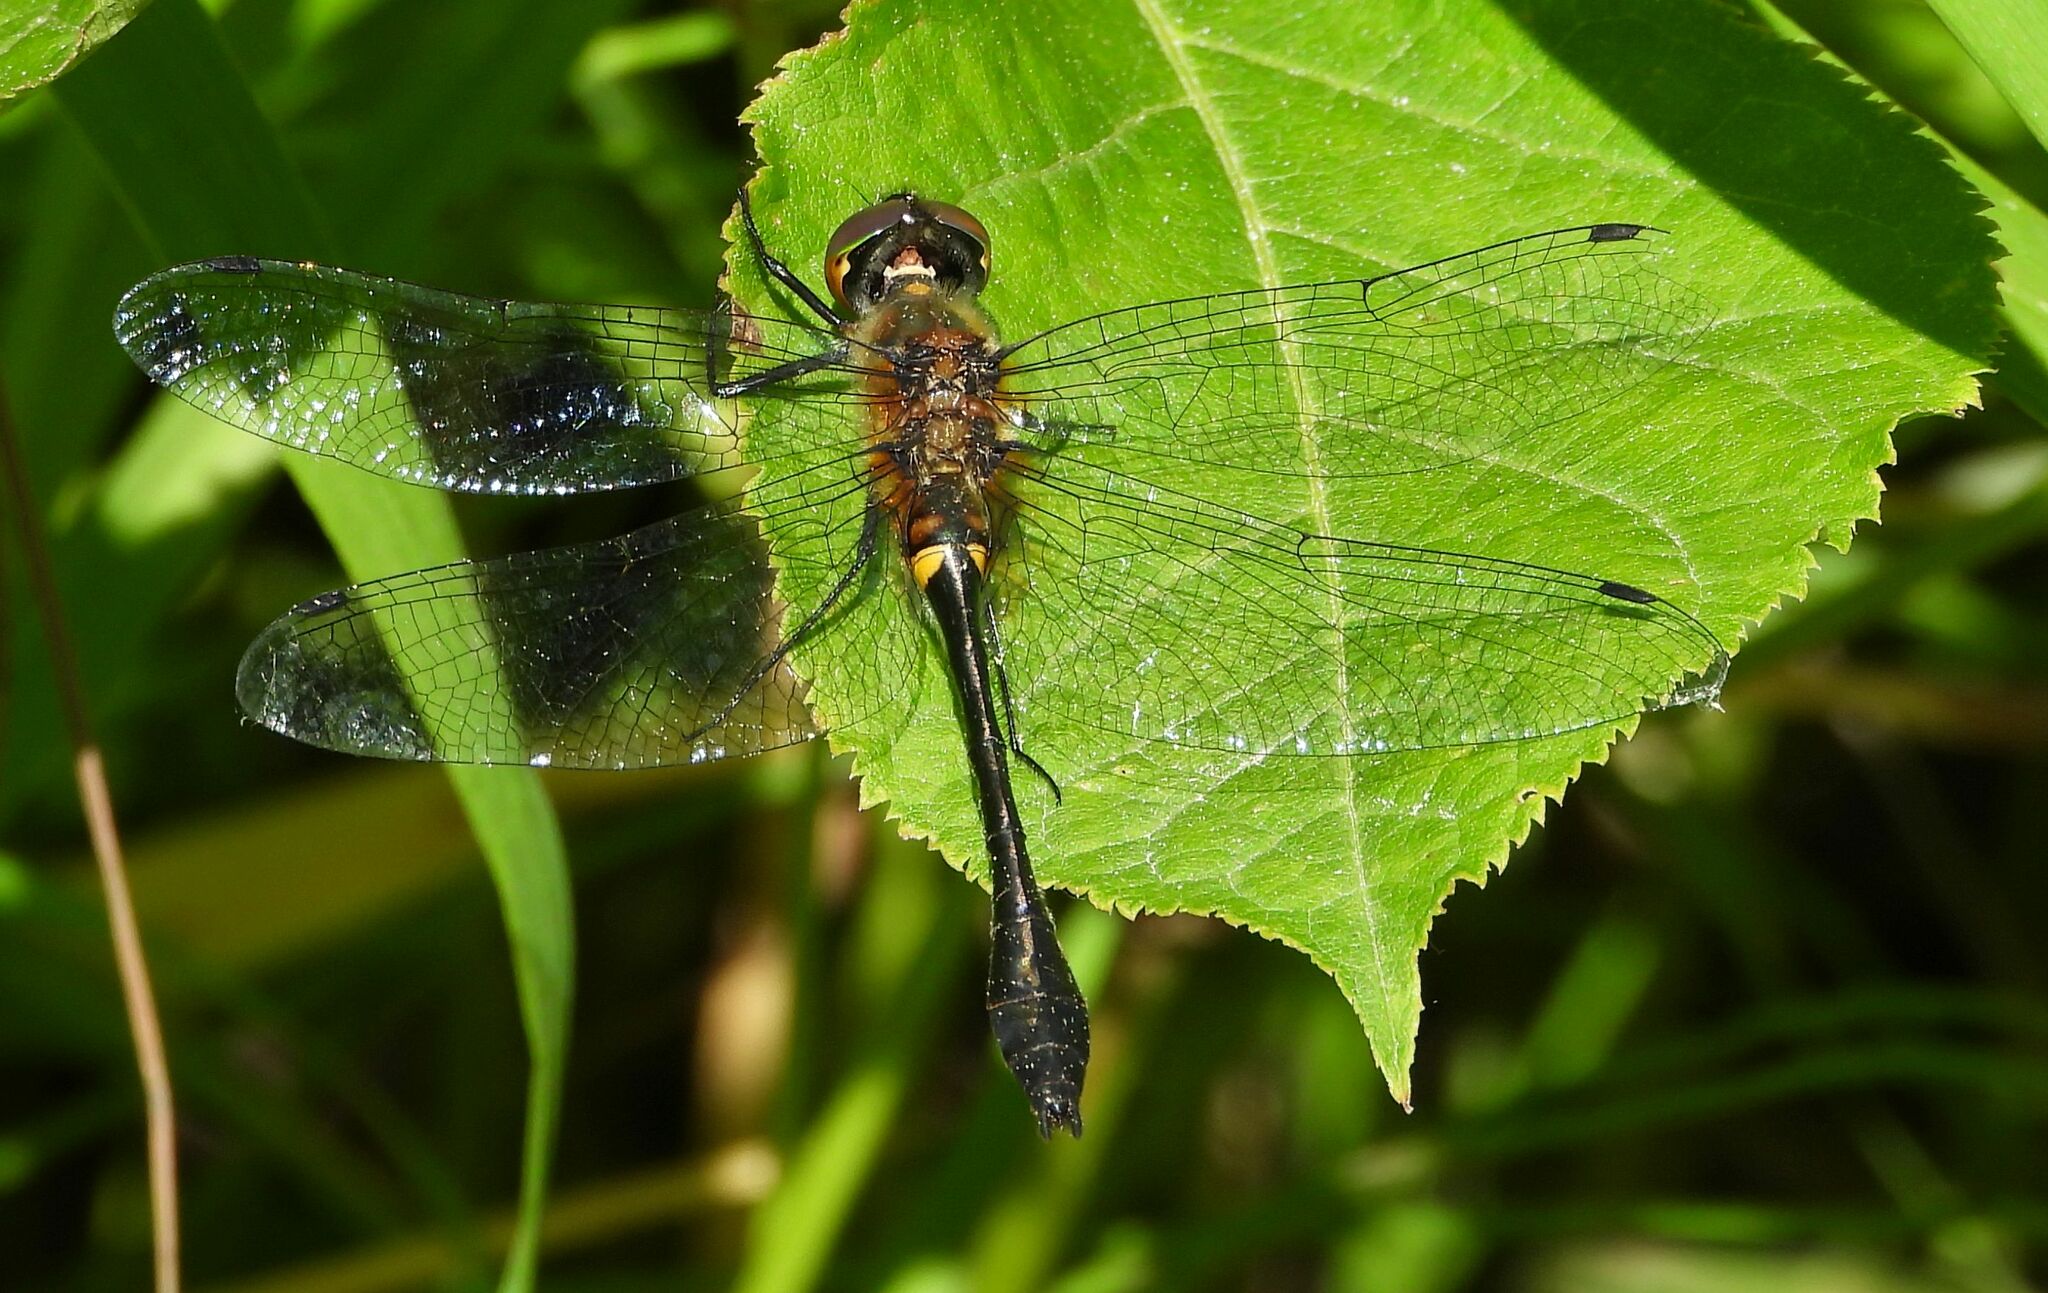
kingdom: Animalia
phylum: Arthropoda
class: Insecta
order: Odonata
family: Corduliidae
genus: Dorocordulia
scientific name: Dorocordulia libera
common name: Racket-tailed emerald
